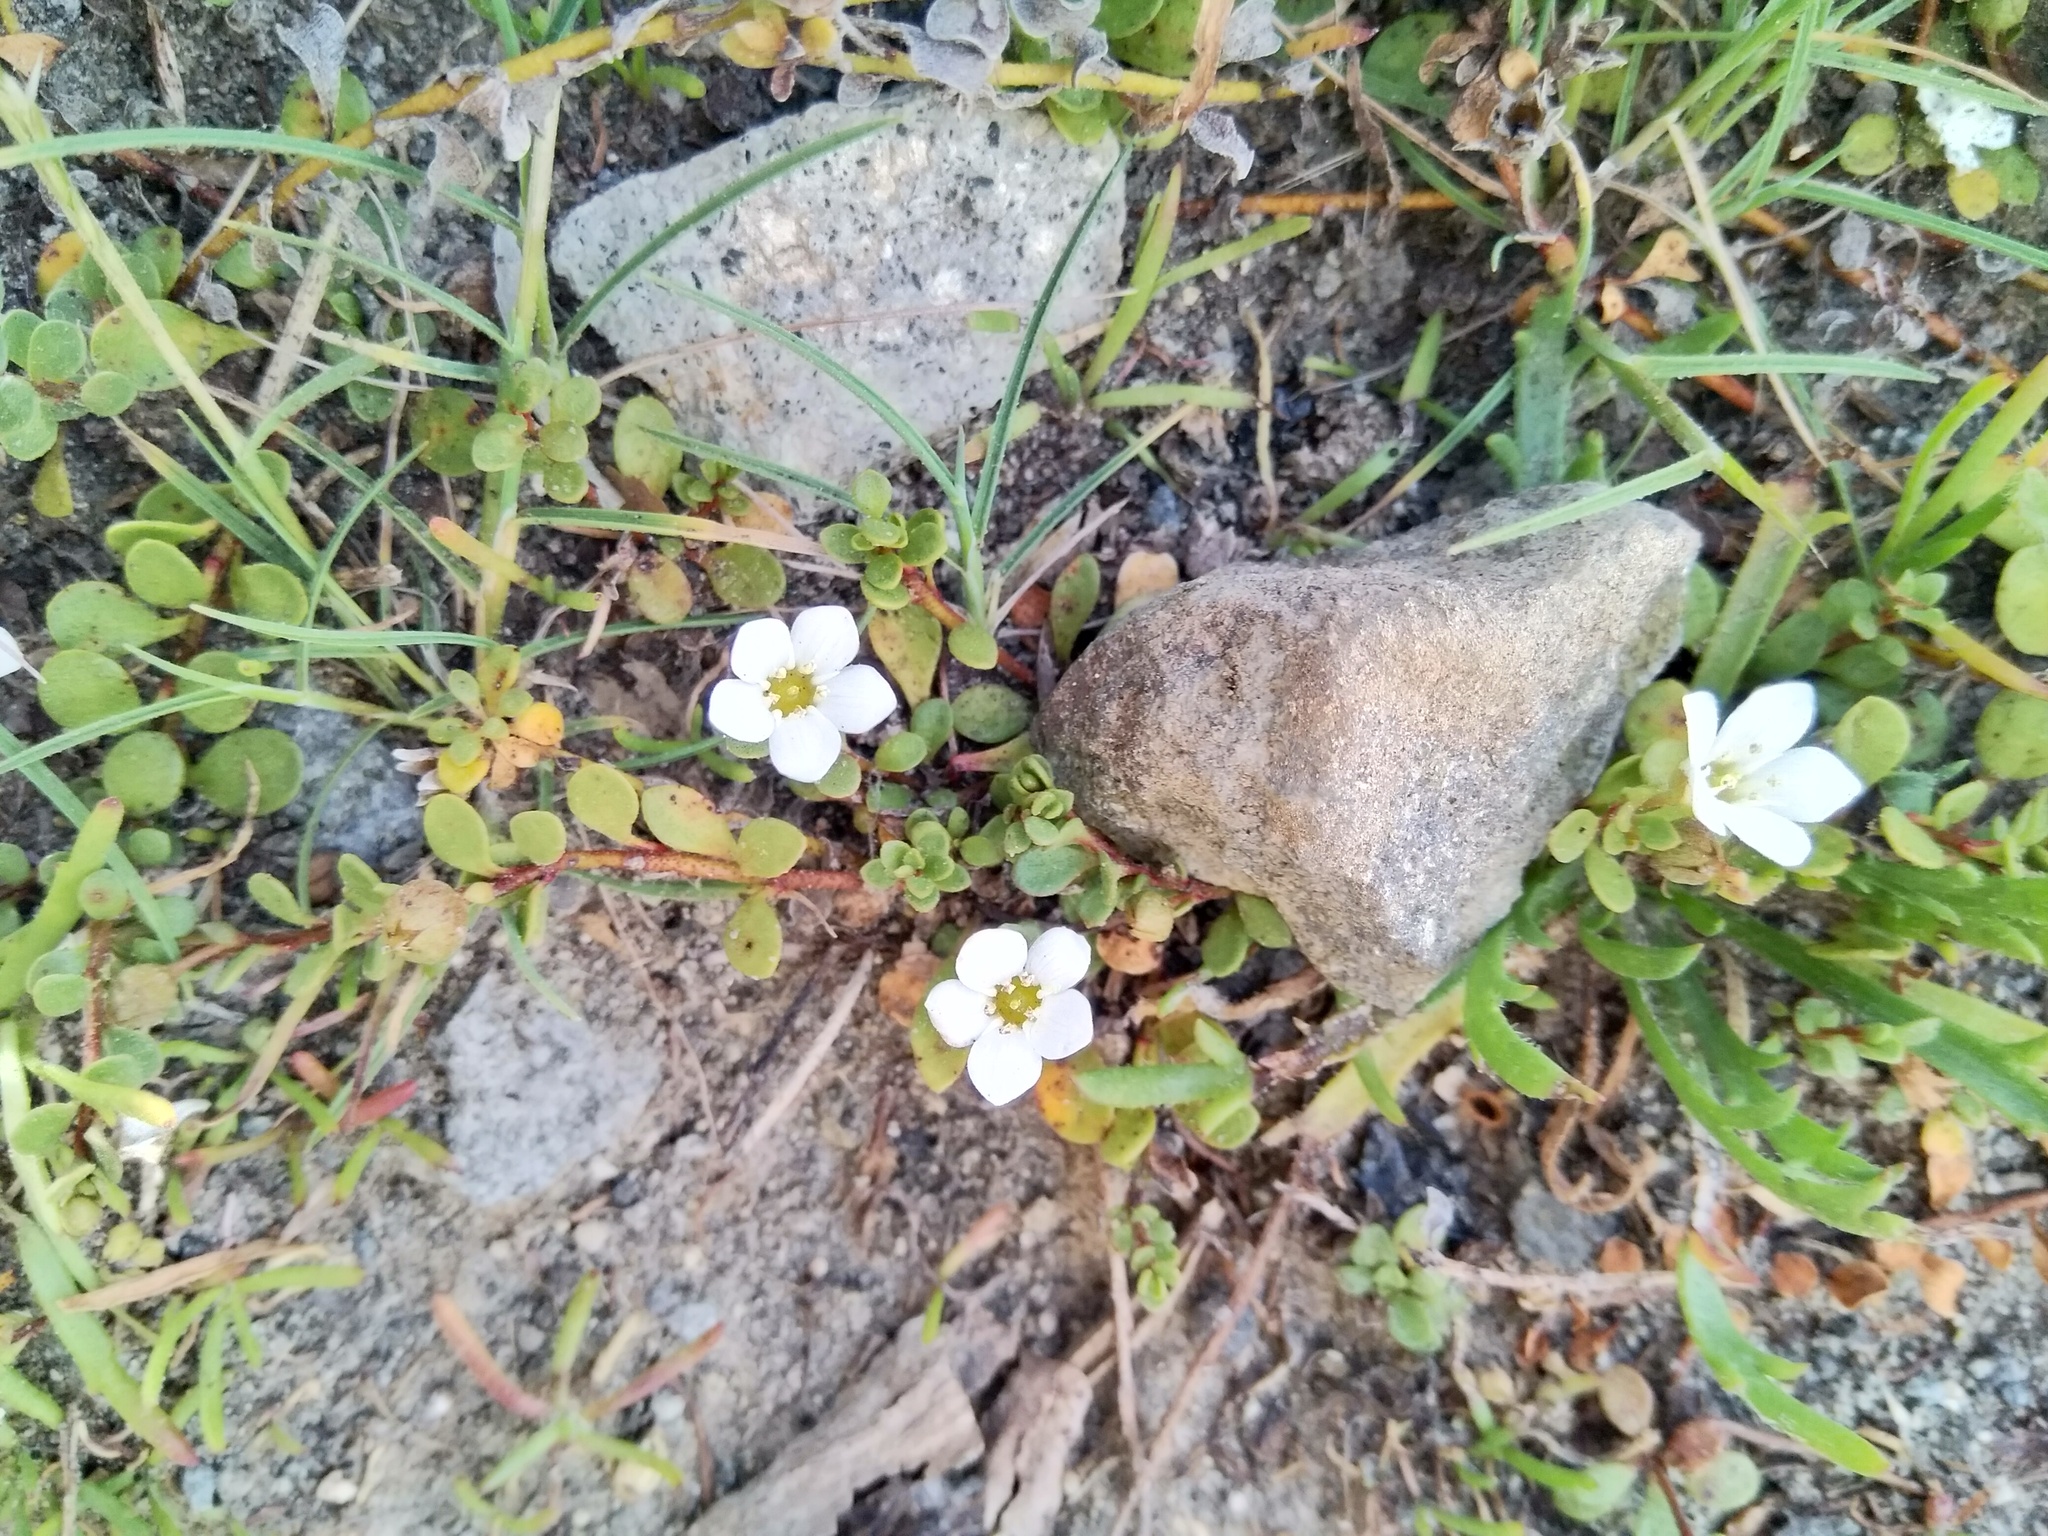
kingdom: Plantae
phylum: Tracheophyta
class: Magnoliopsida
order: Ericales
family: Primulaceae
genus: Samolus
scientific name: Samolus repens
